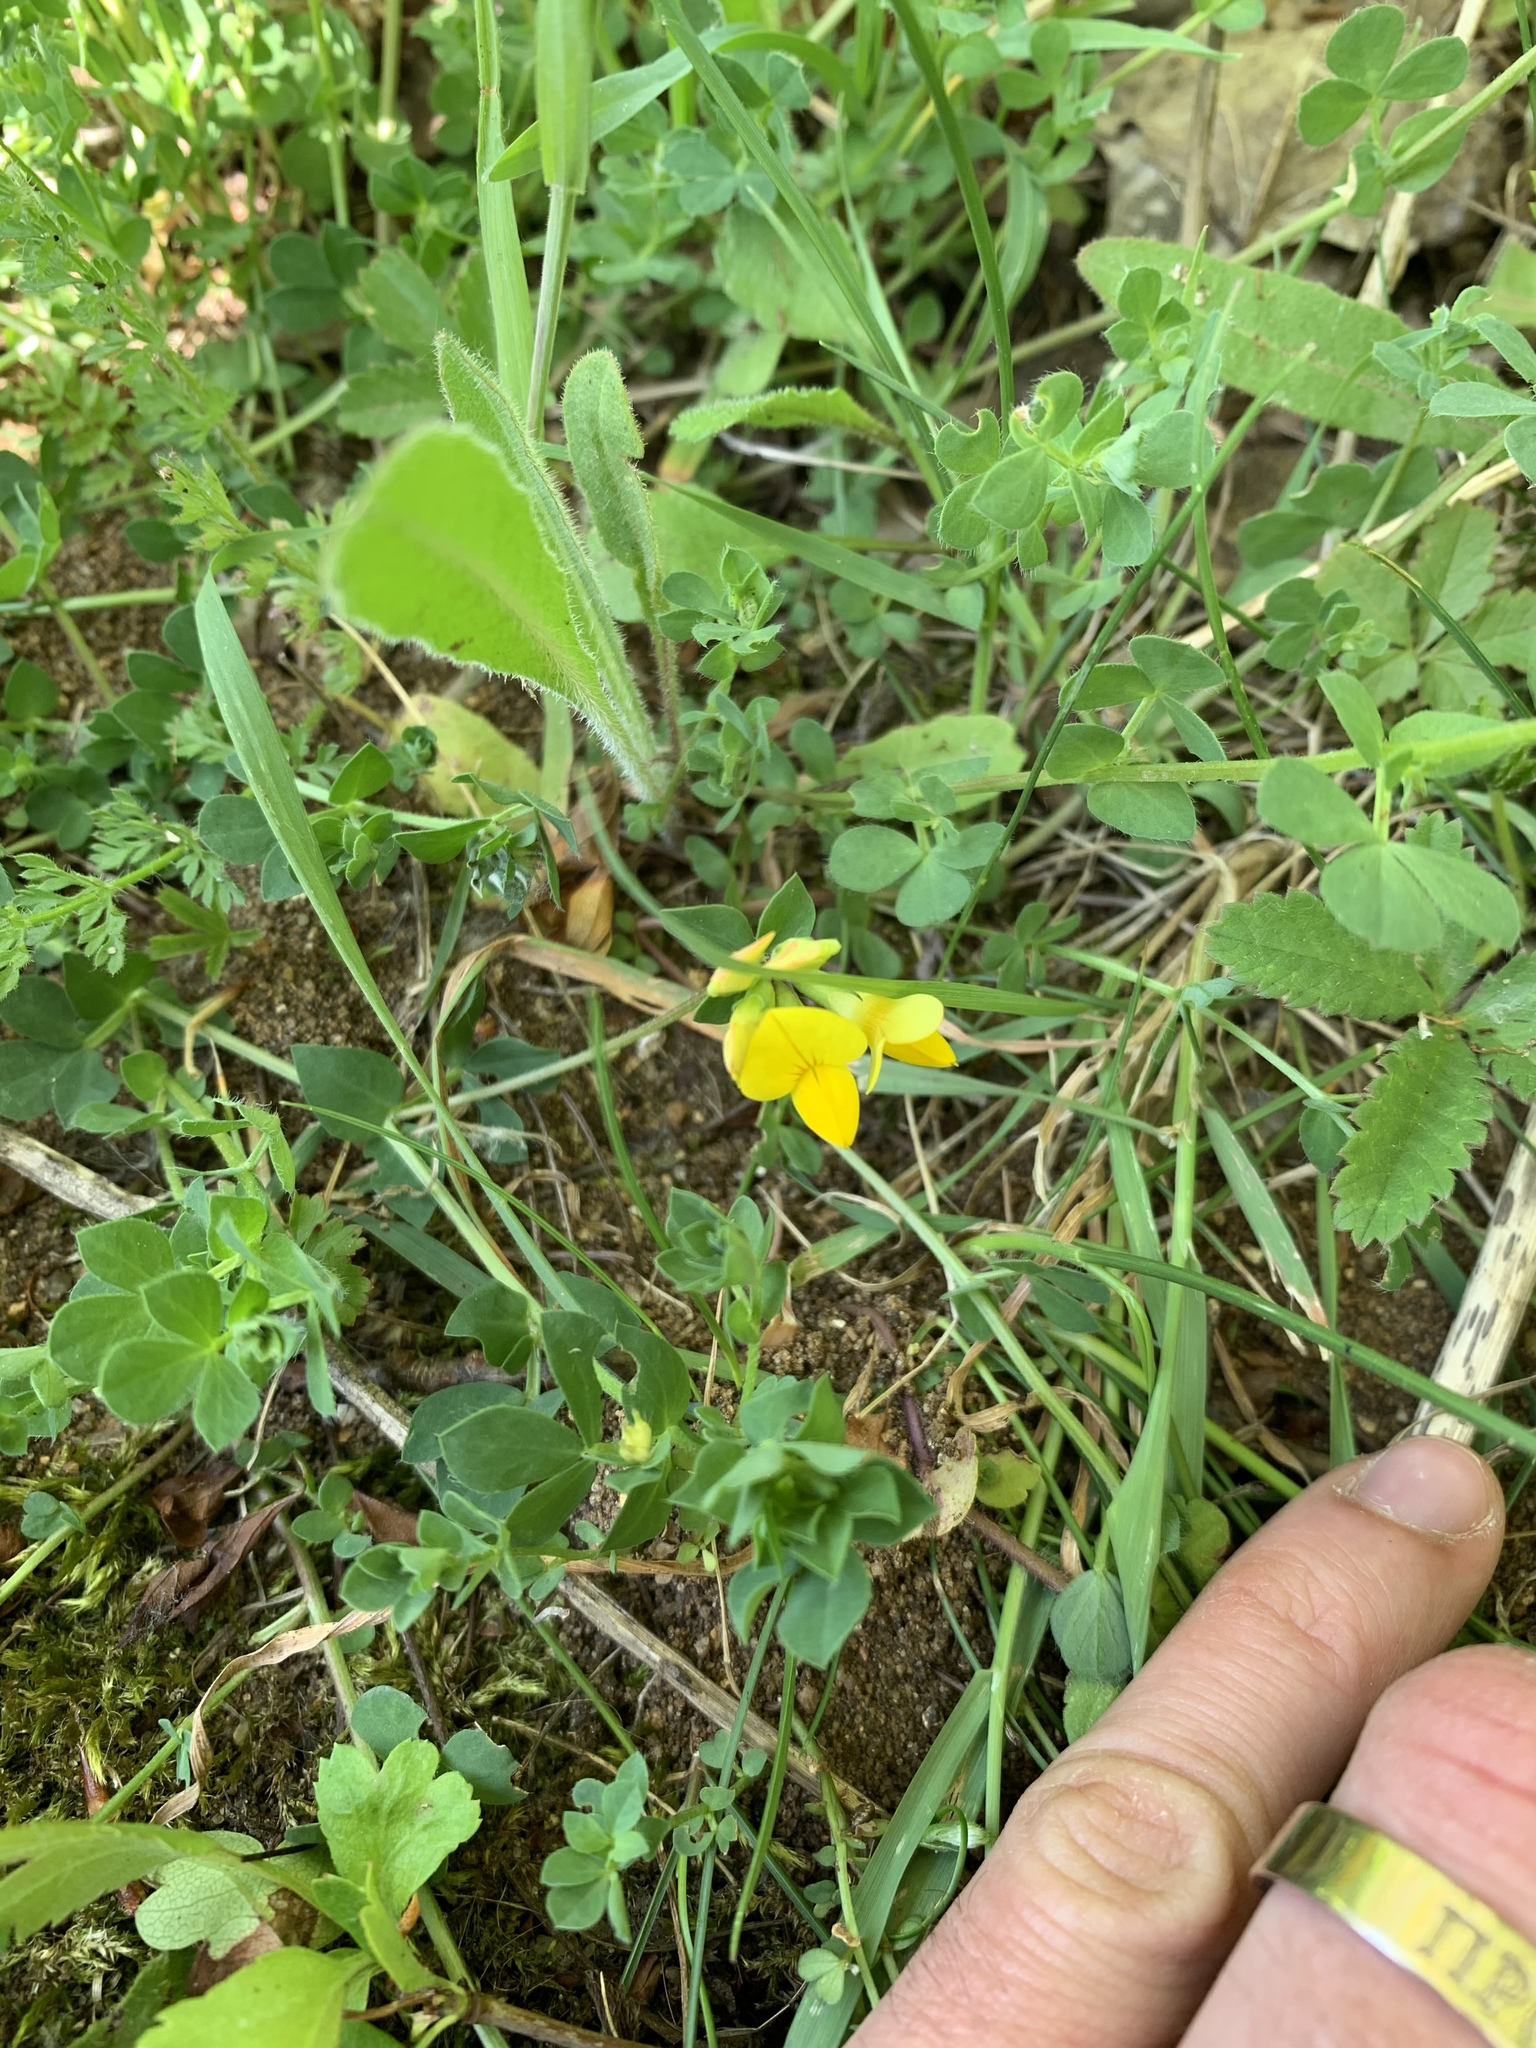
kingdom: Plantae
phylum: Tracheophyta
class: Magnoliopsida
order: Fabales
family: Fabaceae
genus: Lotus
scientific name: Lotus corniculatus
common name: Common bird's-foot-trefoil
